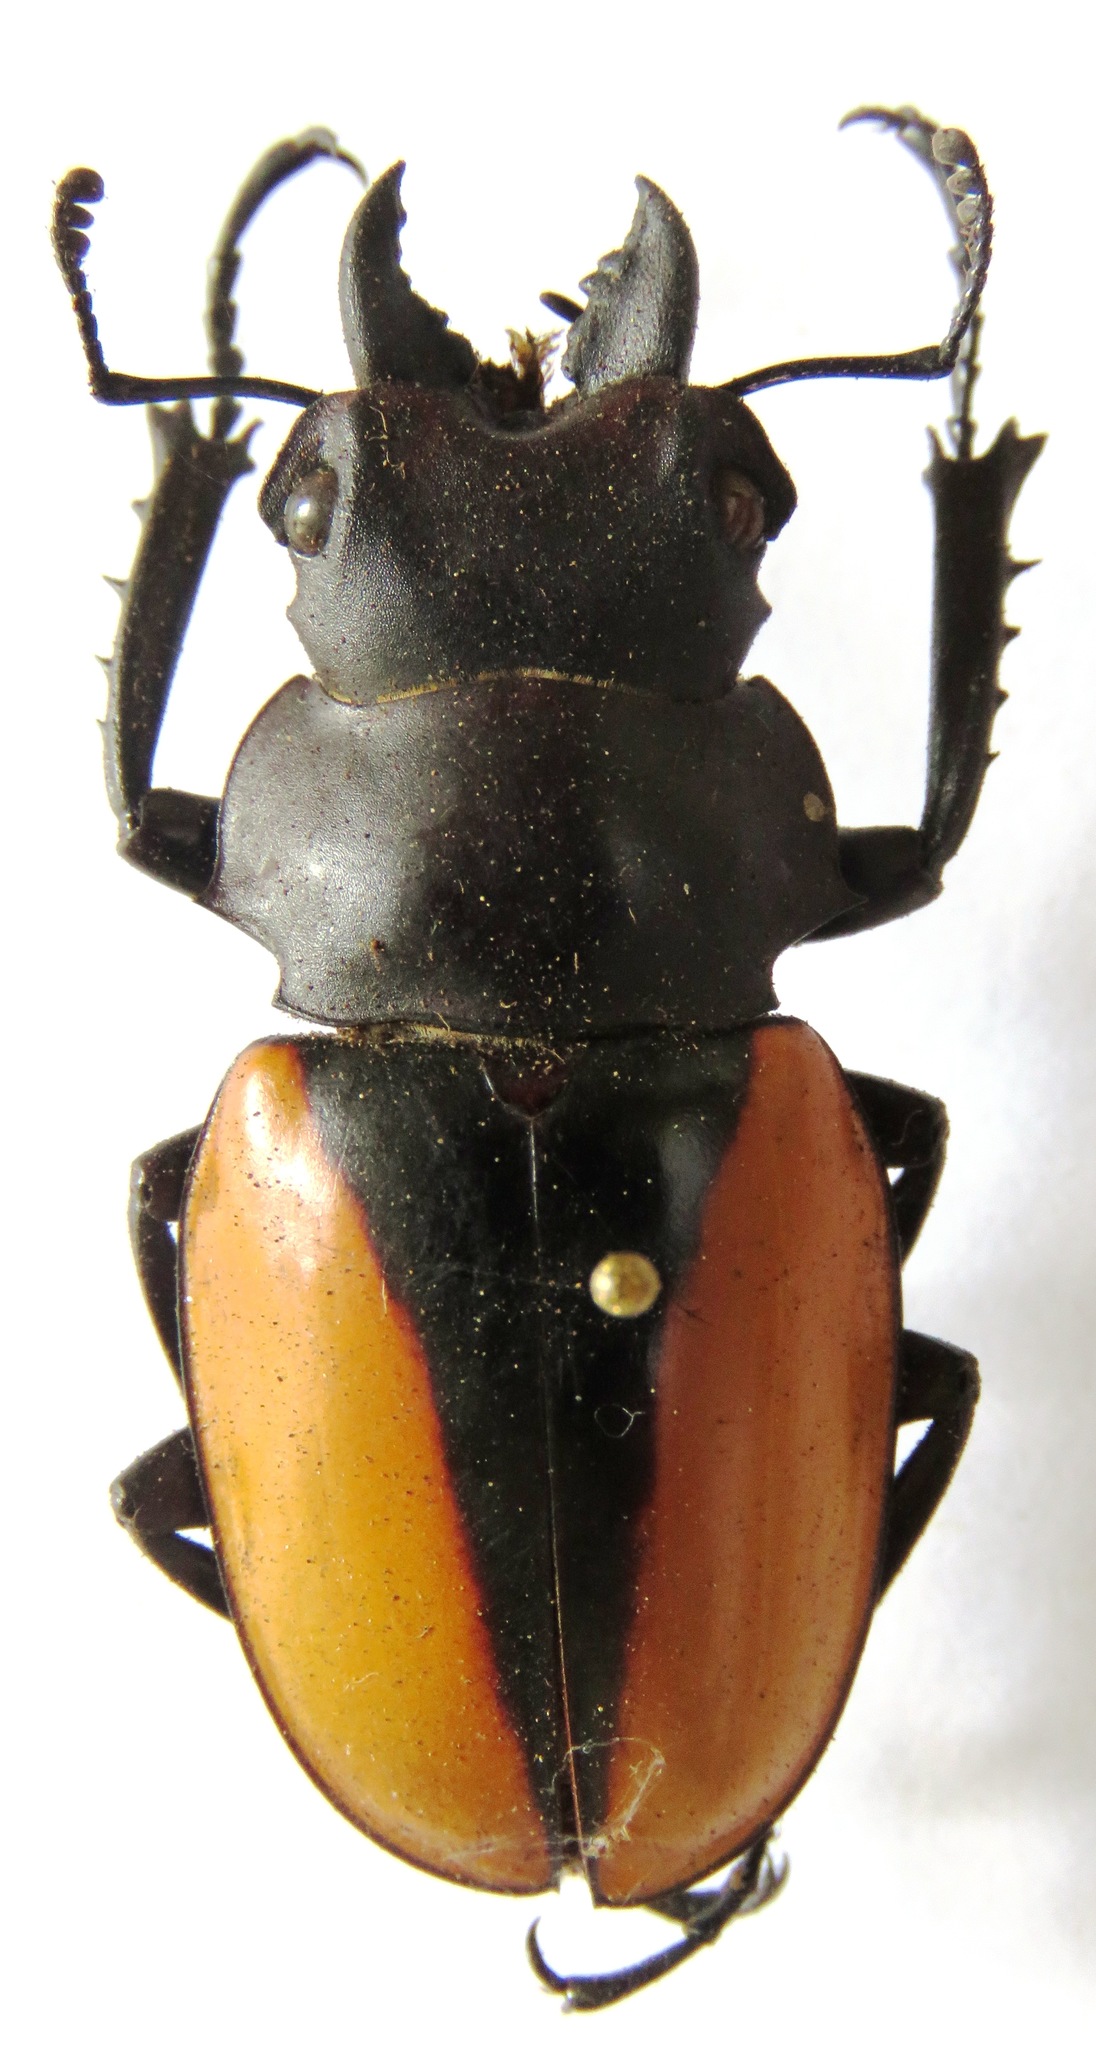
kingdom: Animalia
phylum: Arthropoda
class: Insecta
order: Coleoptera
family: Lucanidae
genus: Odontolabis
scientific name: Odontolabis cuvera
